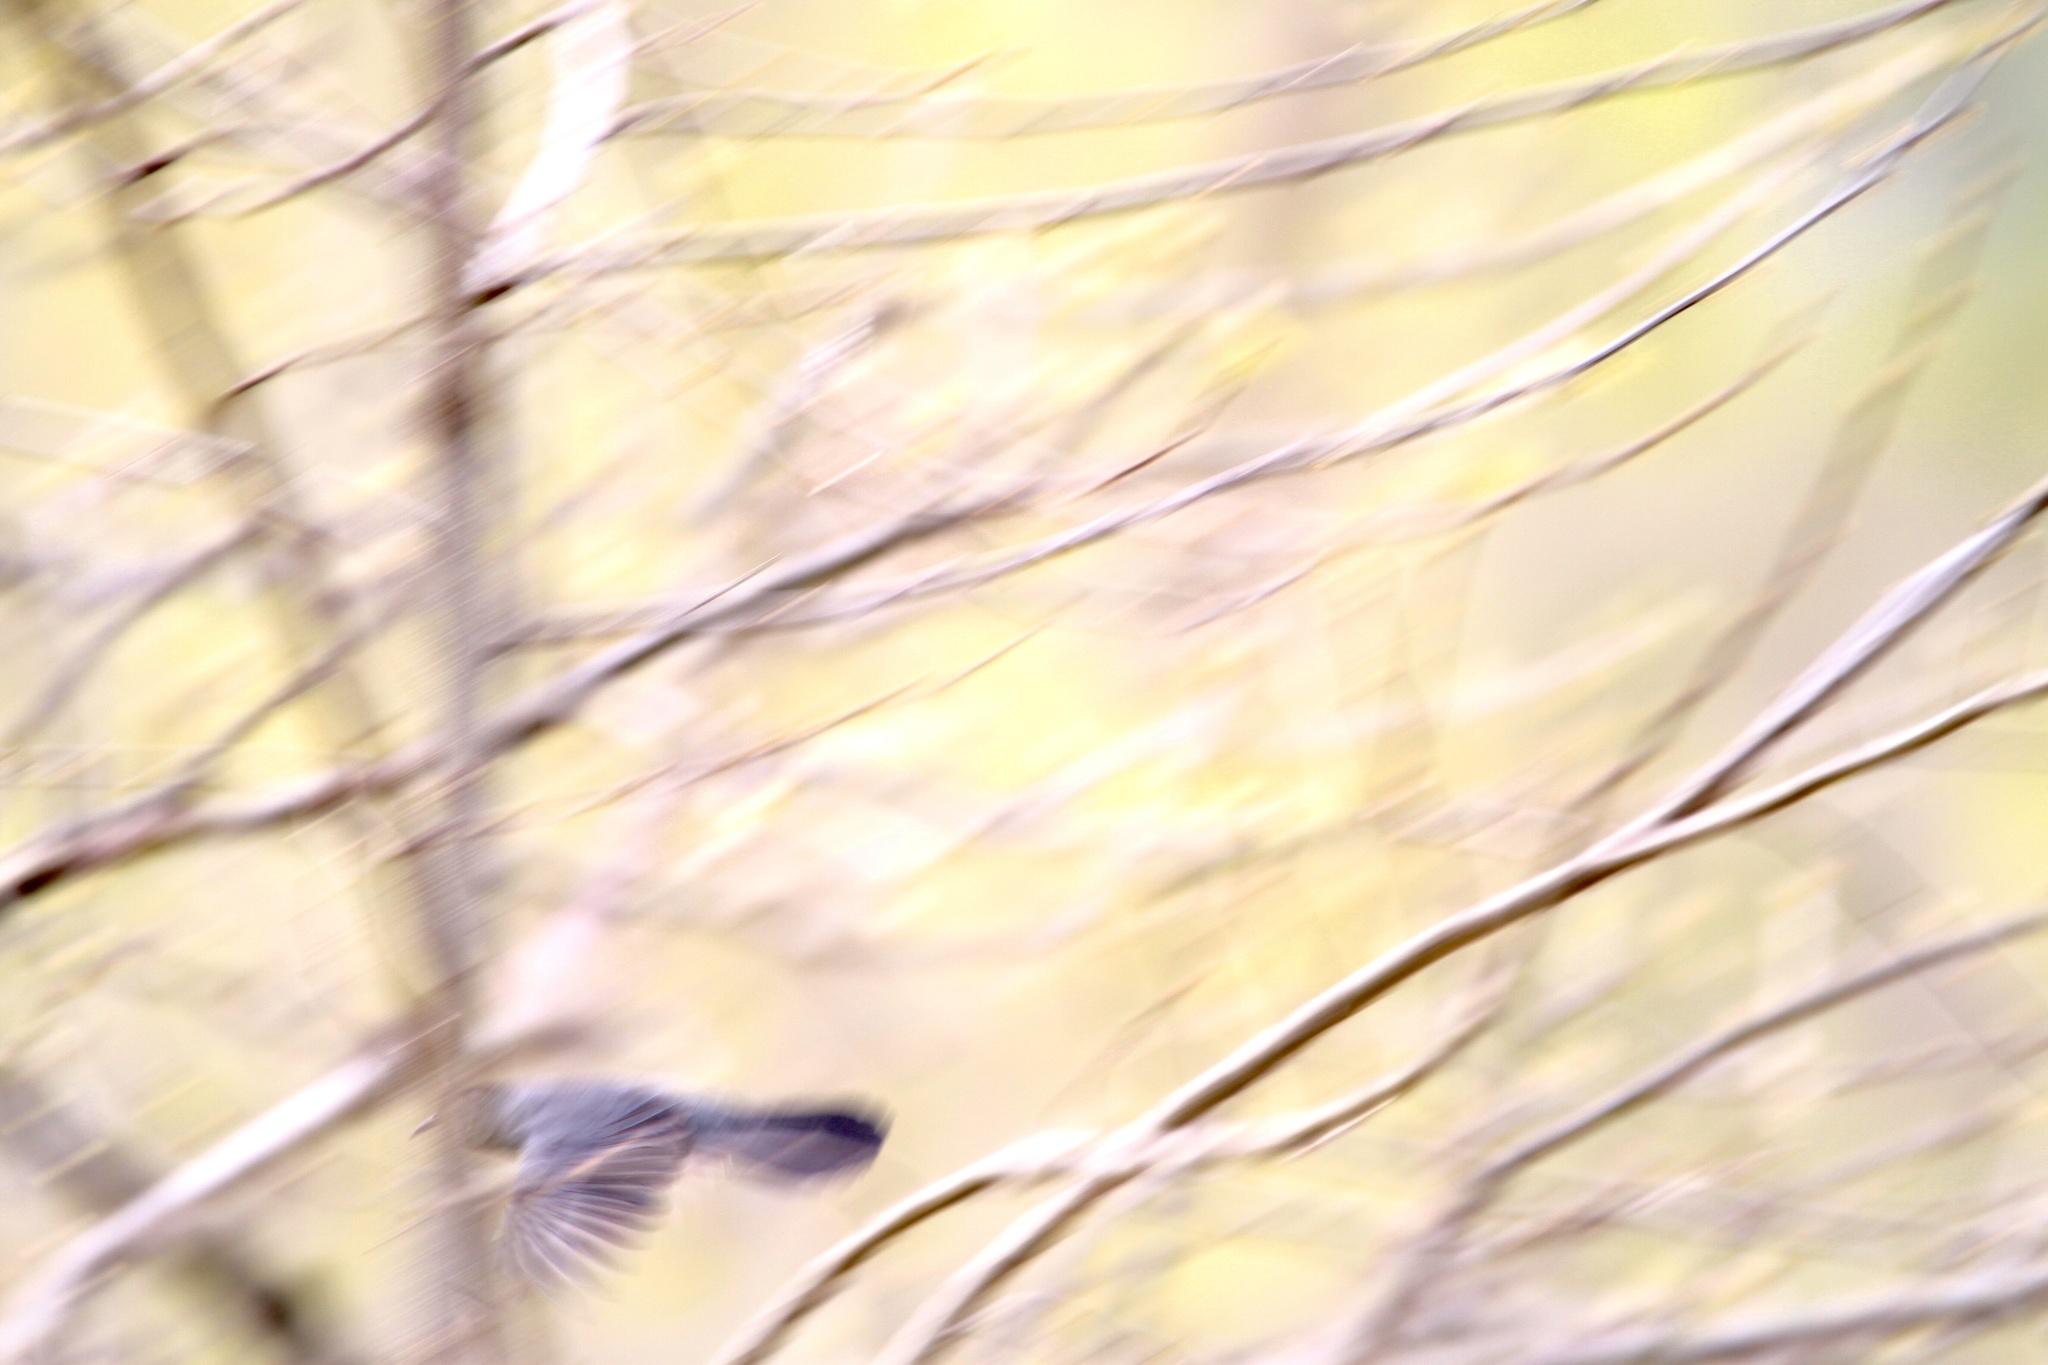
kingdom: Animalia
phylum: Chordata
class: Aves
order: Passeriformes
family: Mimidae
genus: Dumetella
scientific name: Dumetella carolinensis
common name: Gray catbird
